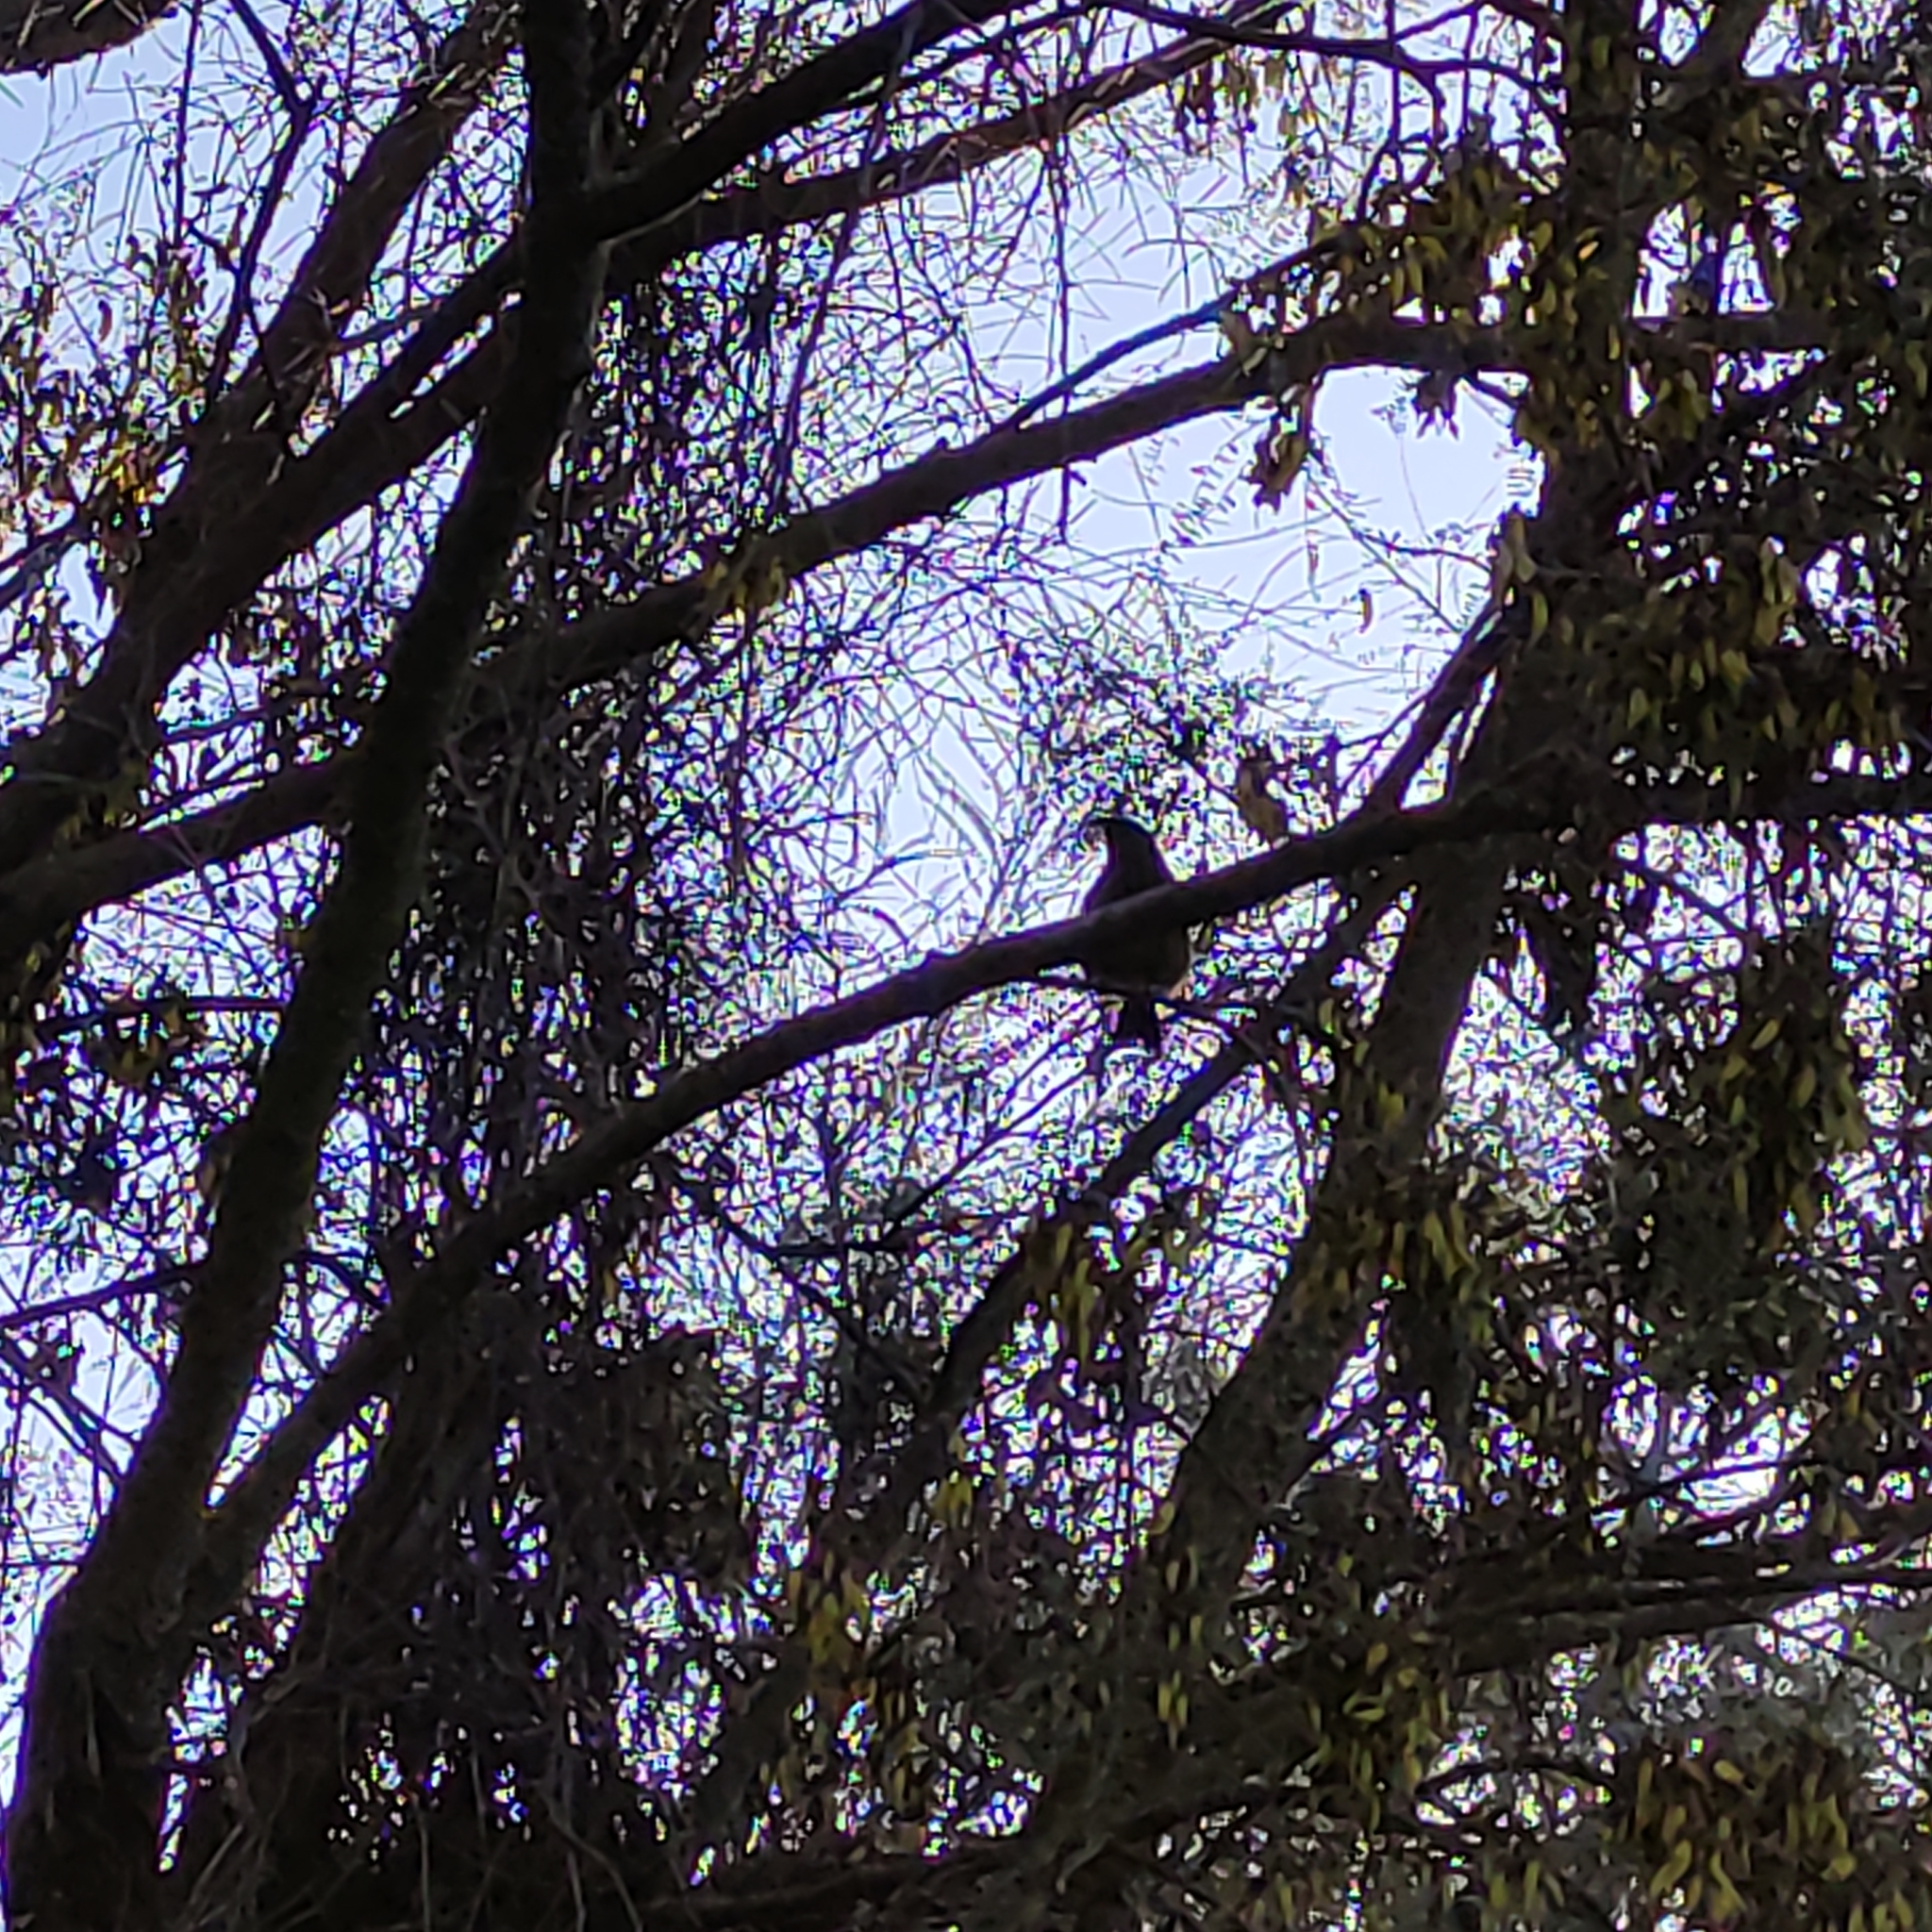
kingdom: Animalia
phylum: Chordata
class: Aves
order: Passeriformes
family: Meliphagidae
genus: Anthornis
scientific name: Anthornis melanura
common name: New zealand bellbird
